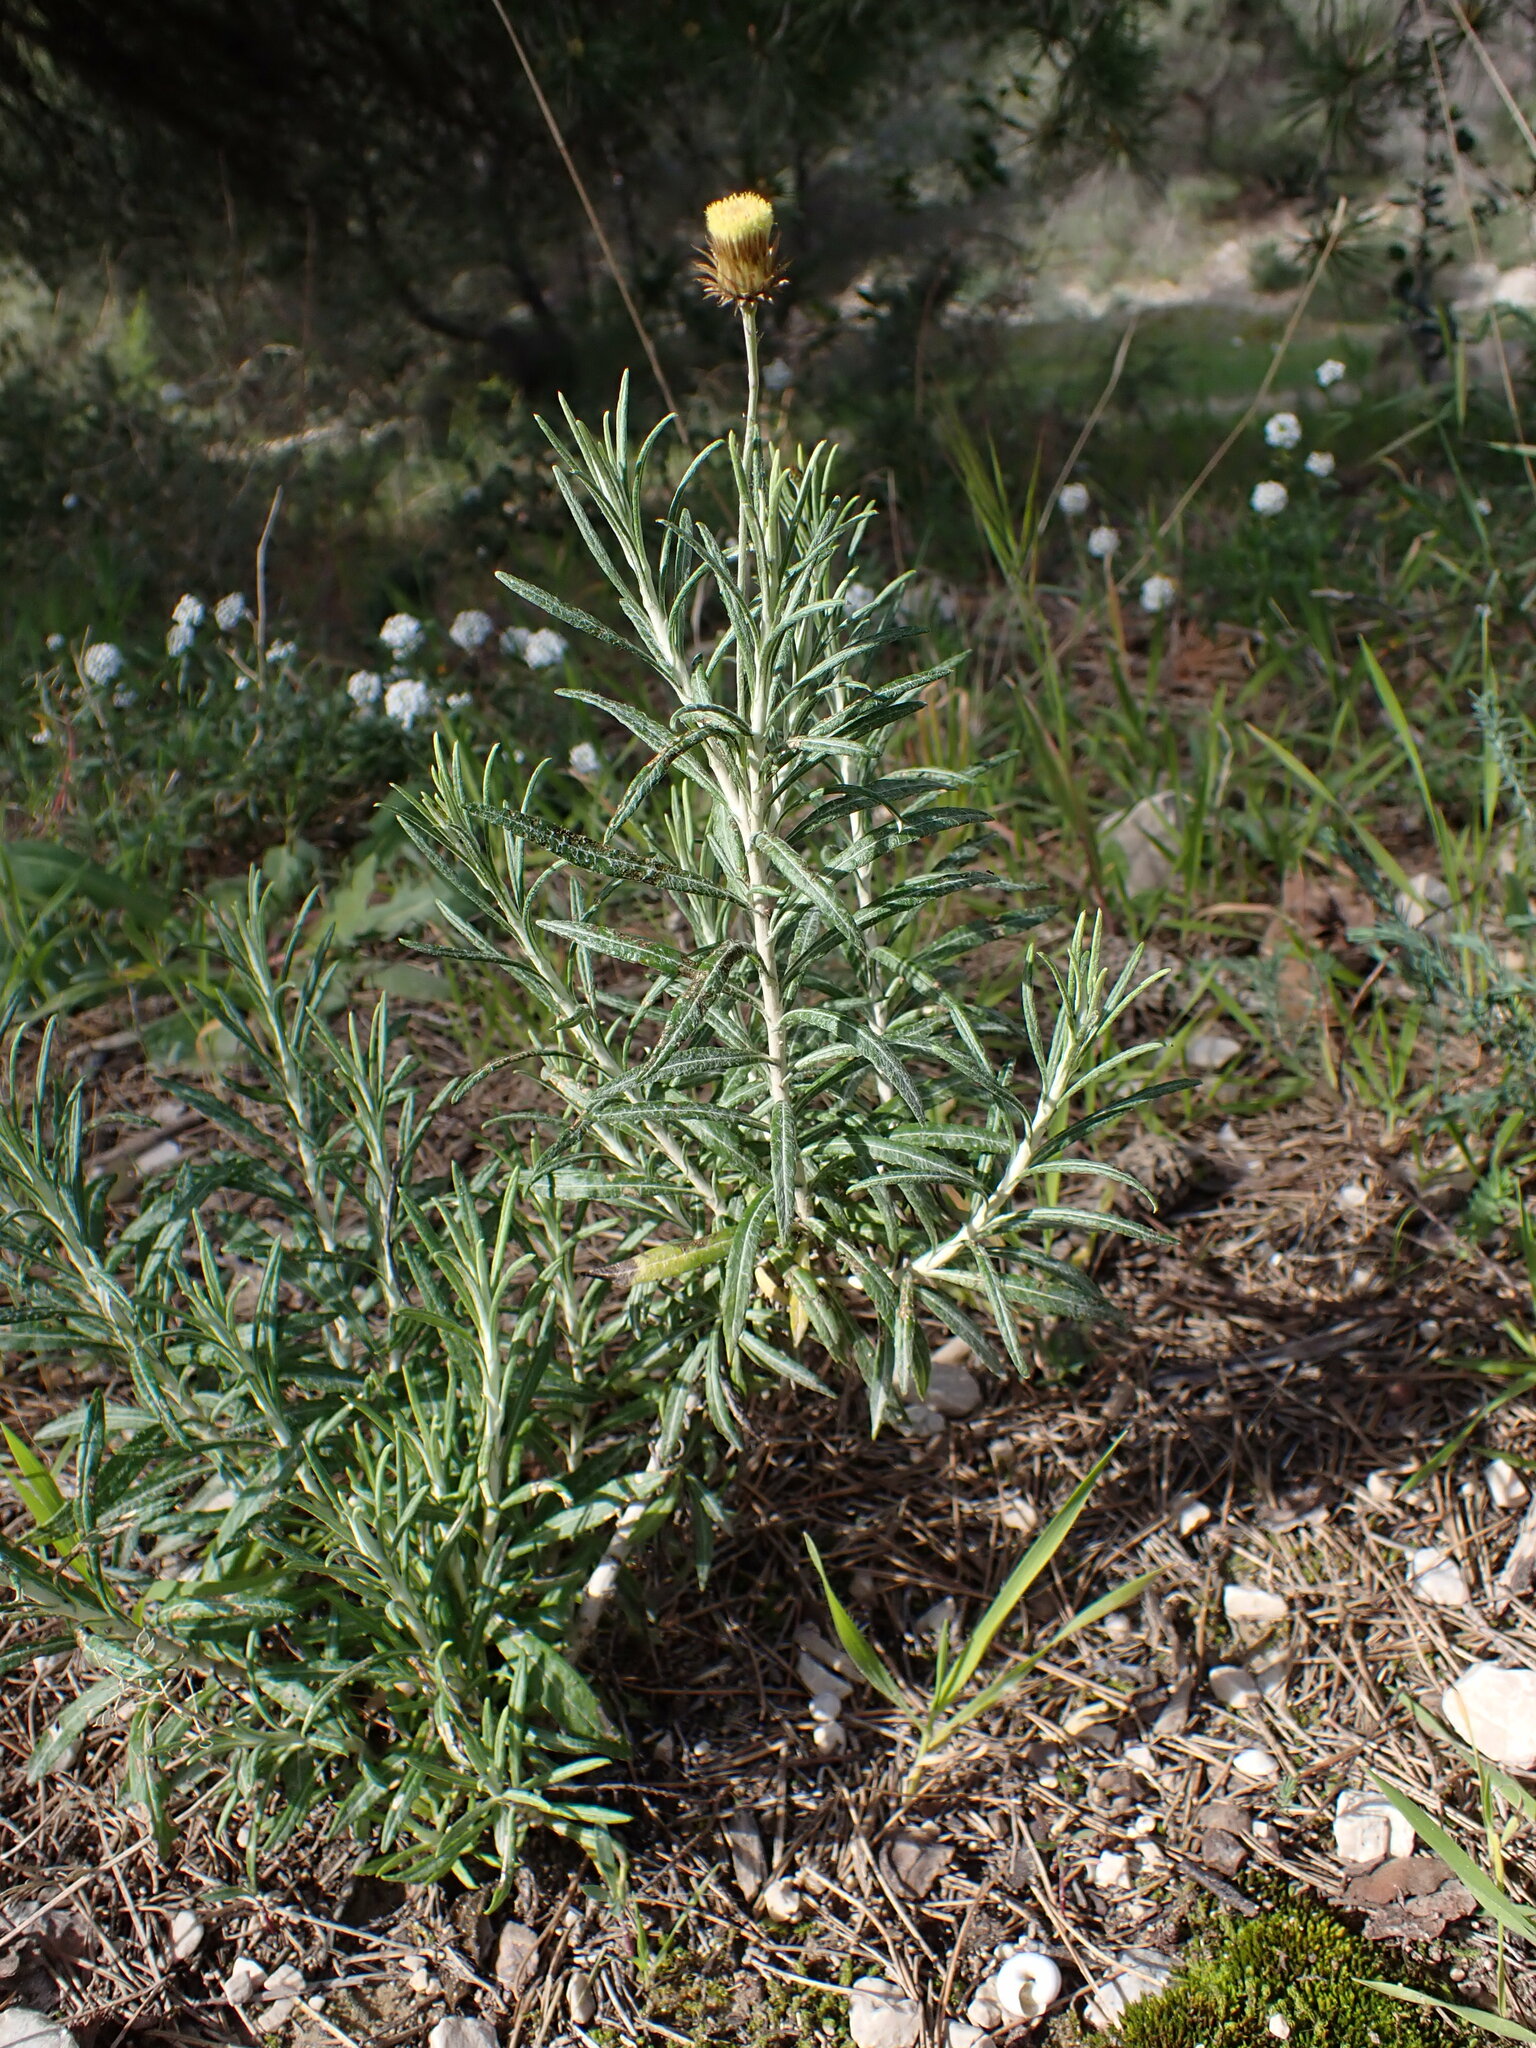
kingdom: Plantae
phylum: Tracheophyta
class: Magnoliopsida
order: Asterales
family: Asteraceae
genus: Phagnalon
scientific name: Phagnalon saxatile
